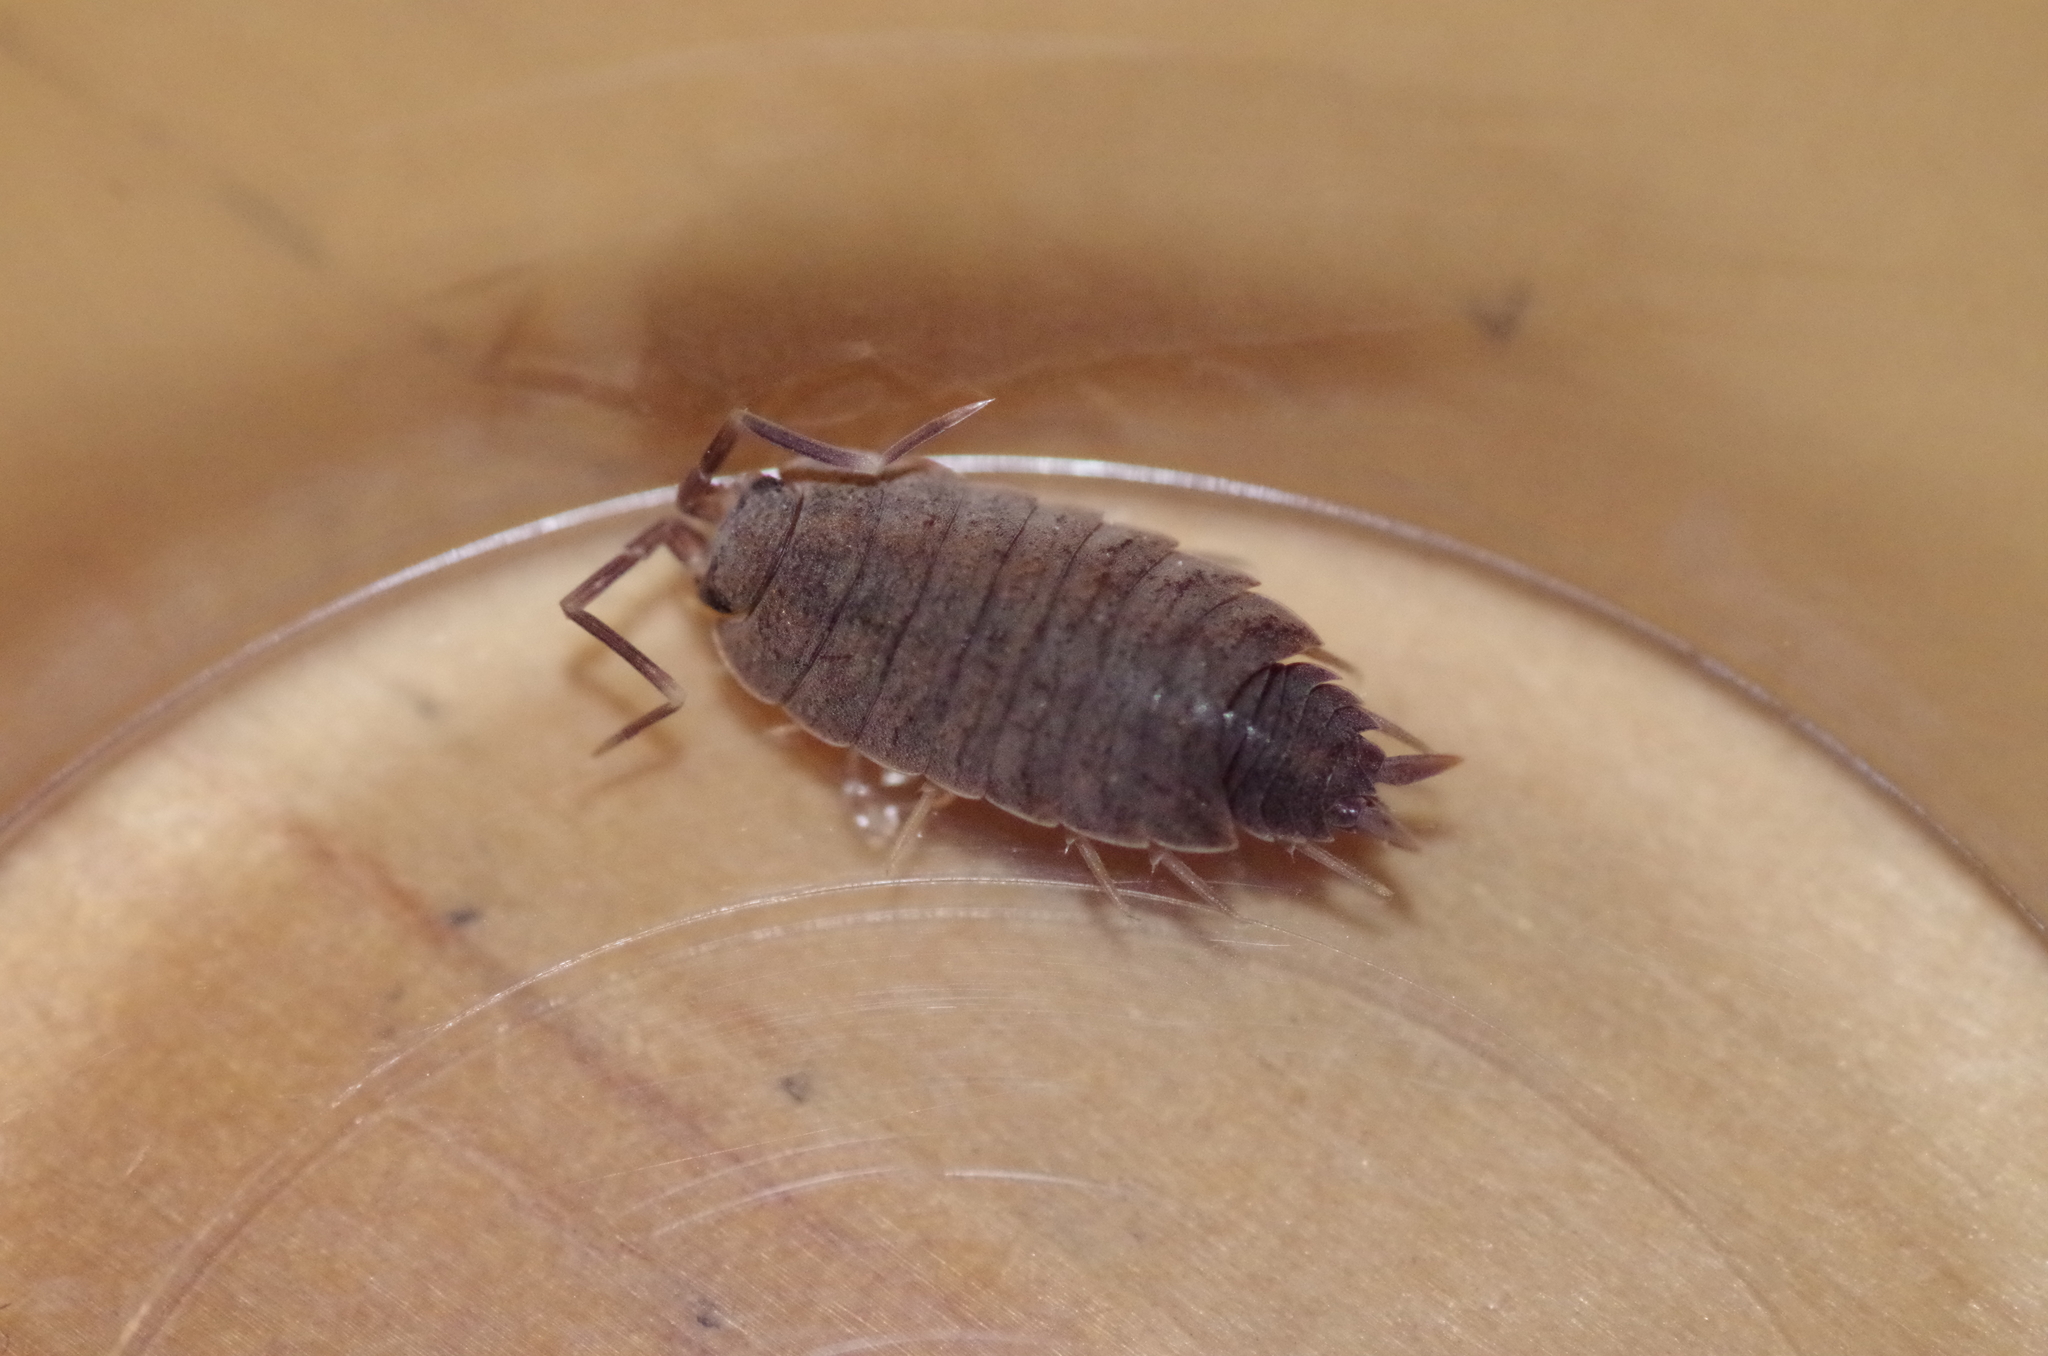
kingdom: Animalia
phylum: Arthropoda
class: Malacostraca
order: Isopoda
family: Porcellionidae
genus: Porcellionides
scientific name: Porcellionides pruinosus
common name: Plum woodlouse
